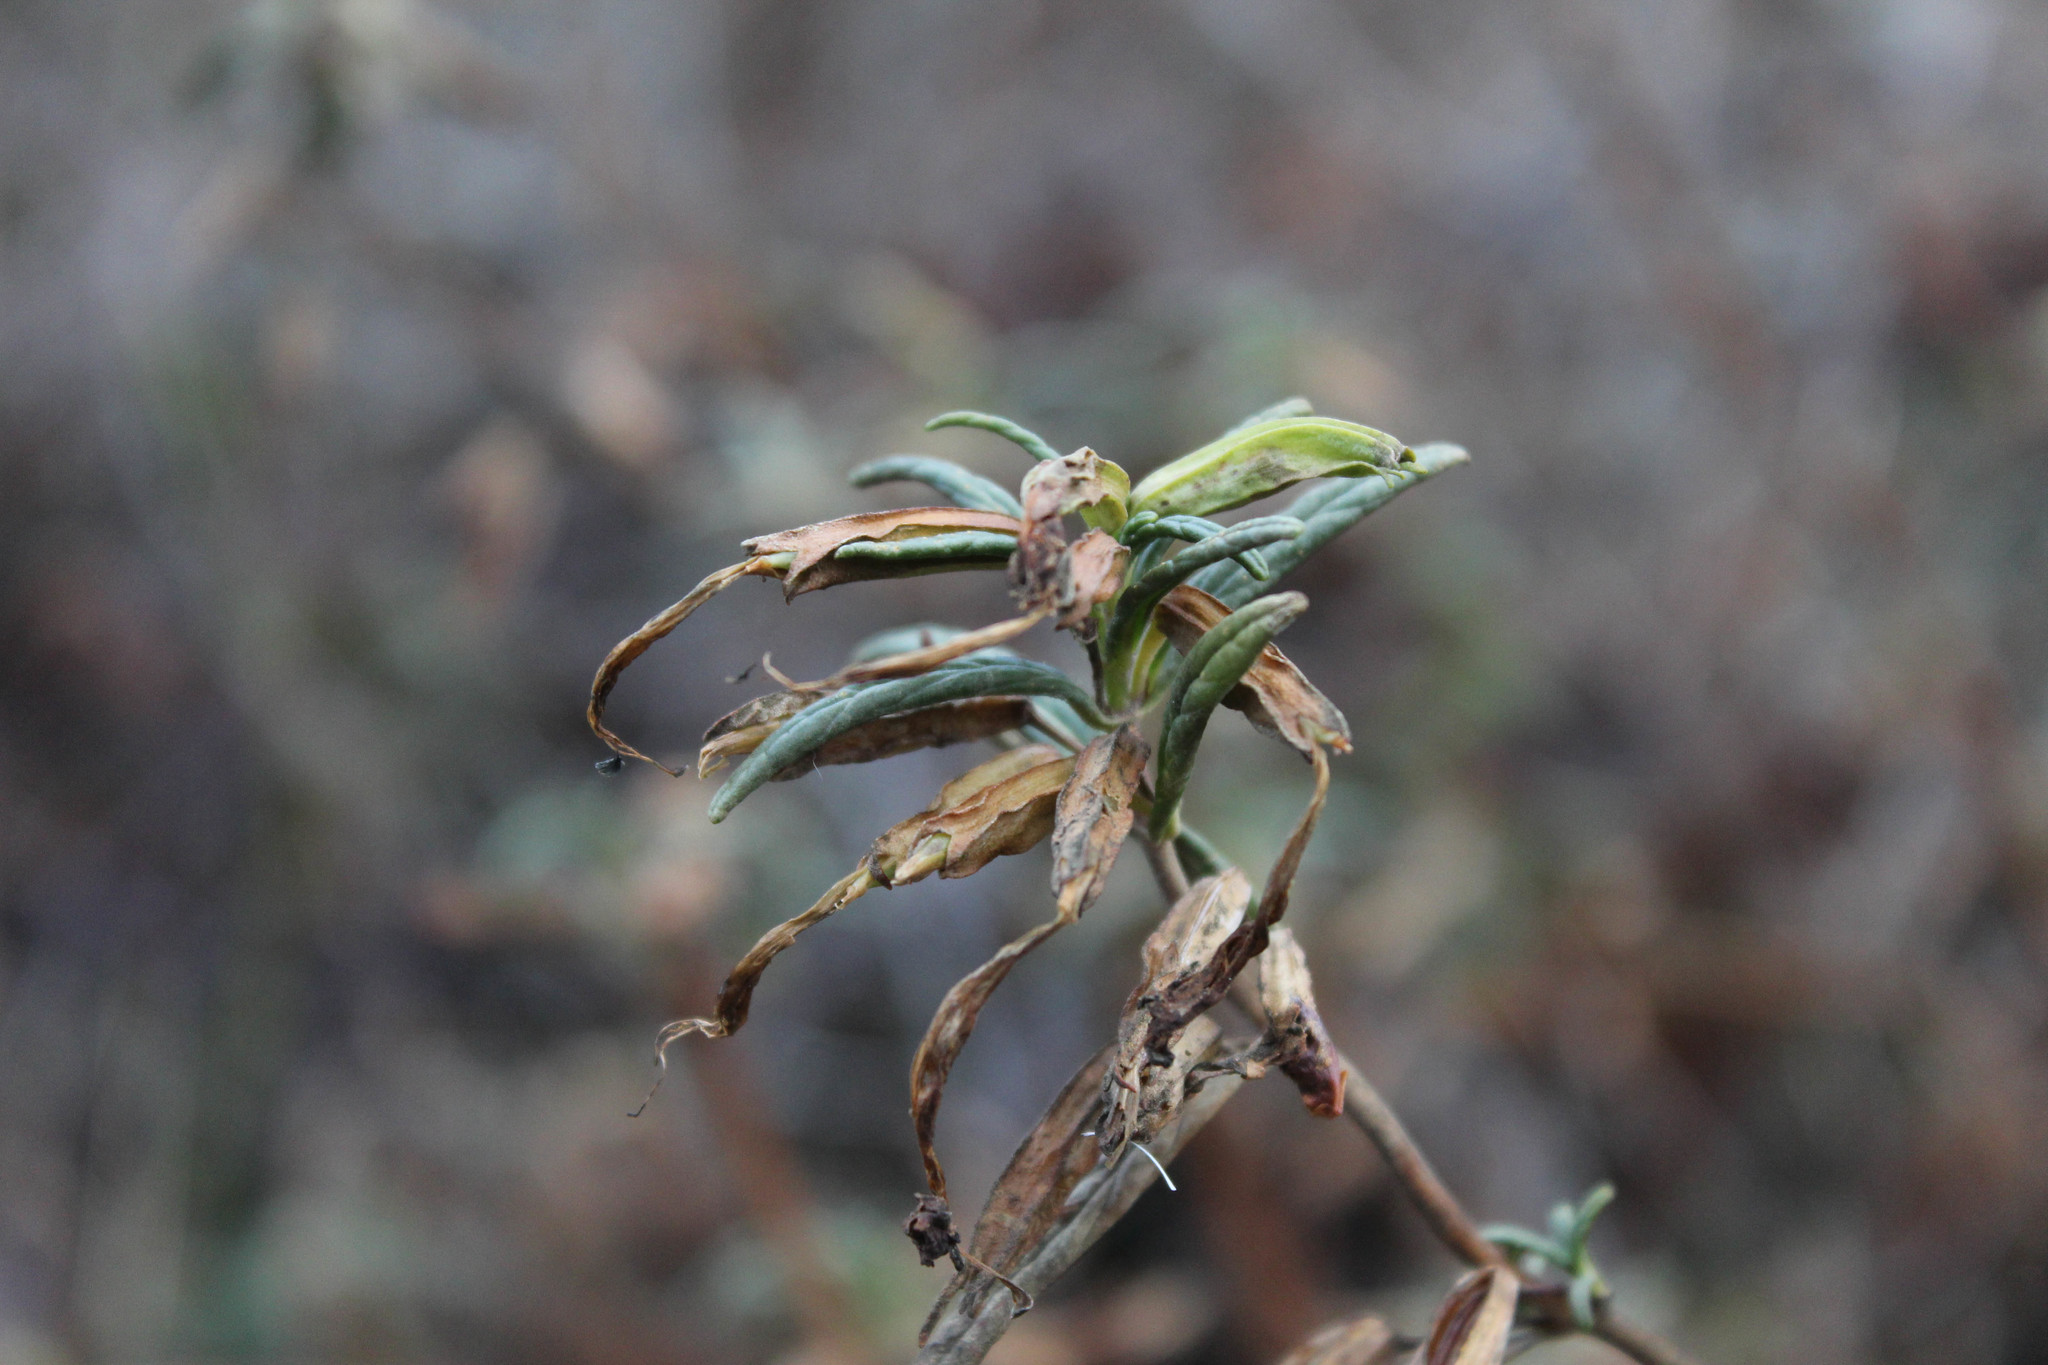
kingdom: Plantae
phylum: Tracheophyta
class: Magnoliopsida
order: Lamiales
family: Phrymaceae
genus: Diplacus
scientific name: Diplacus aurantiacus
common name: Bush monkey-flower
